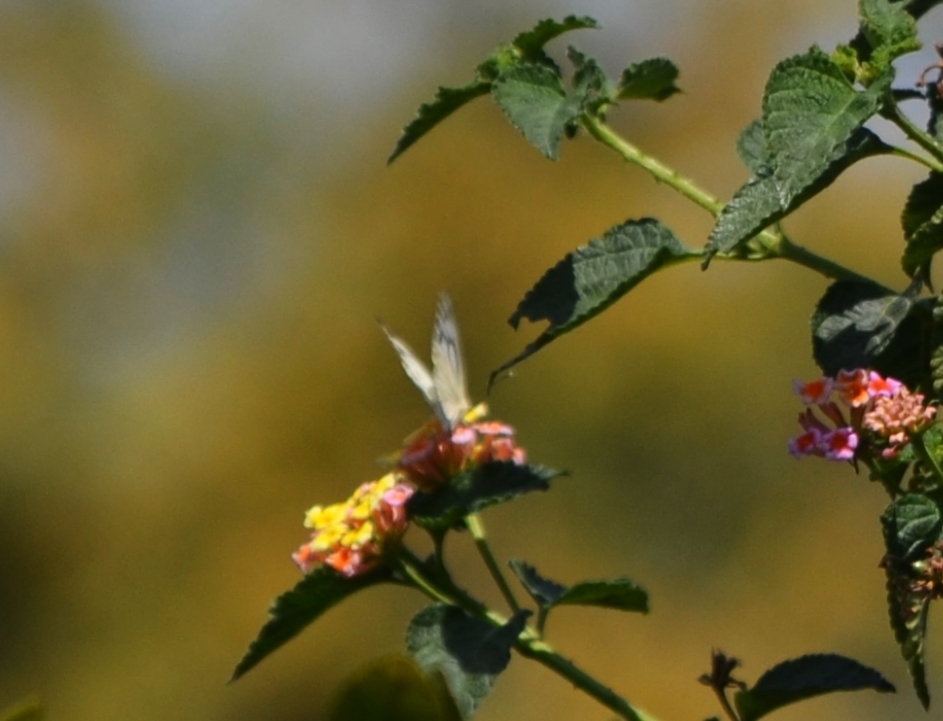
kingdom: Animalia
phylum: Arthropoda
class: Insecta
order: Lepidoptera
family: Pieridae
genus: Belenois
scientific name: Belenois aurota
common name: Brown-veined white
